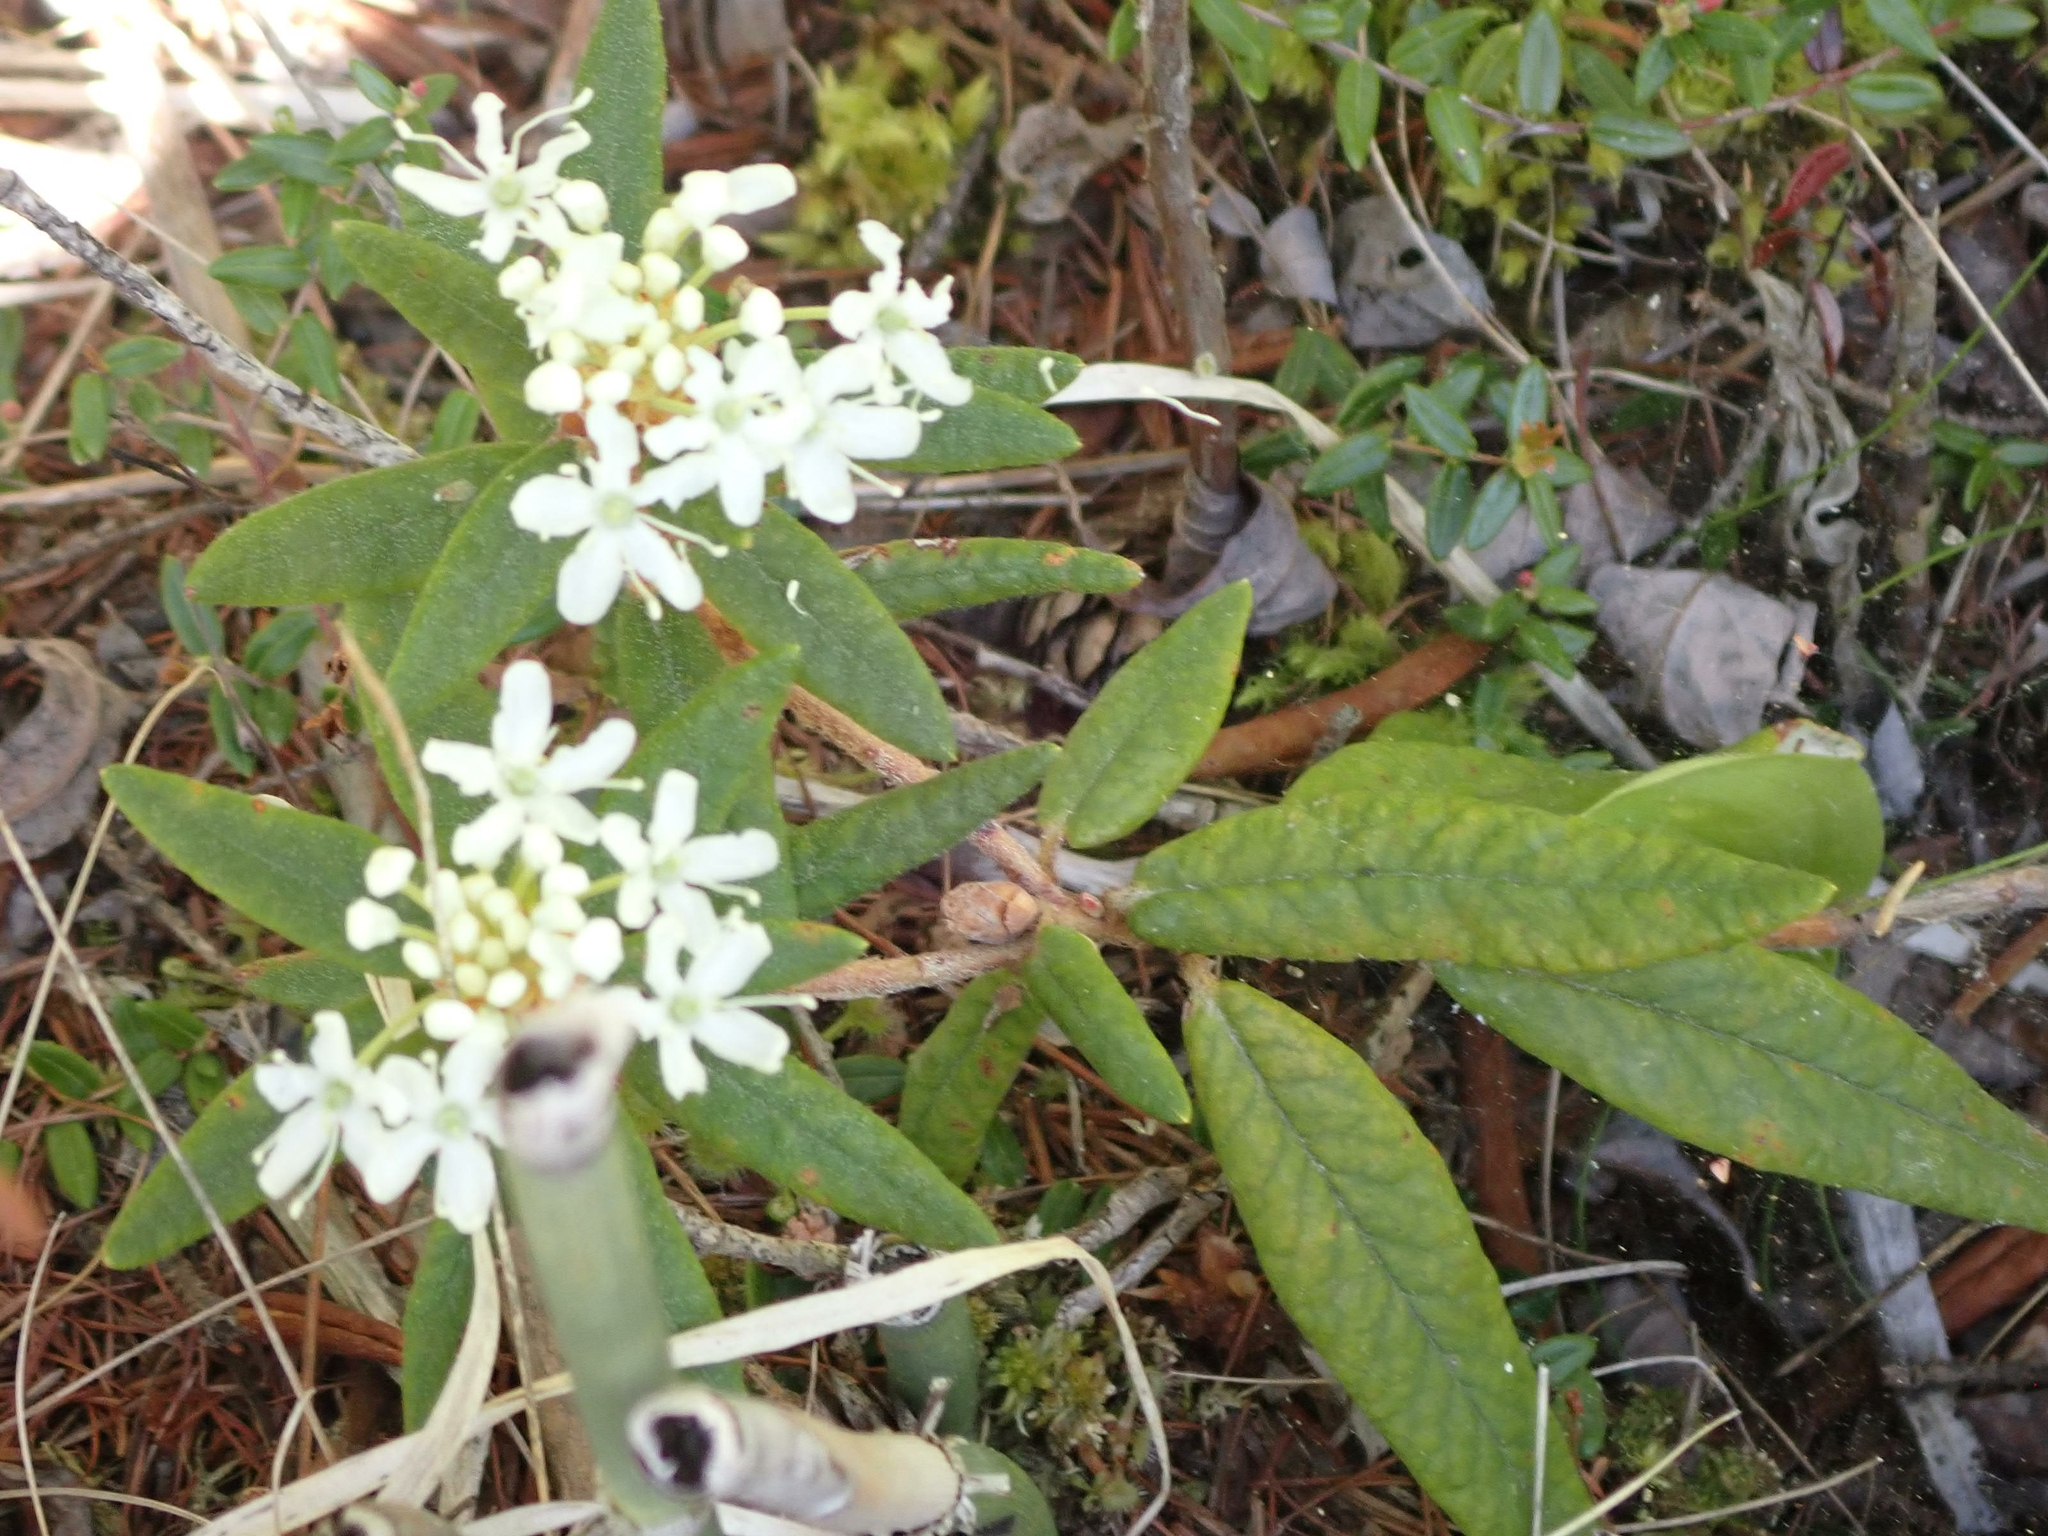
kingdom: Plantae
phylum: Tracheophyta
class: Magnoliopsida
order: Ericales
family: Ericaceae
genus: Rhododendron
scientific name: Rhododendron groenlandicum
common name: Bog labrador tea
